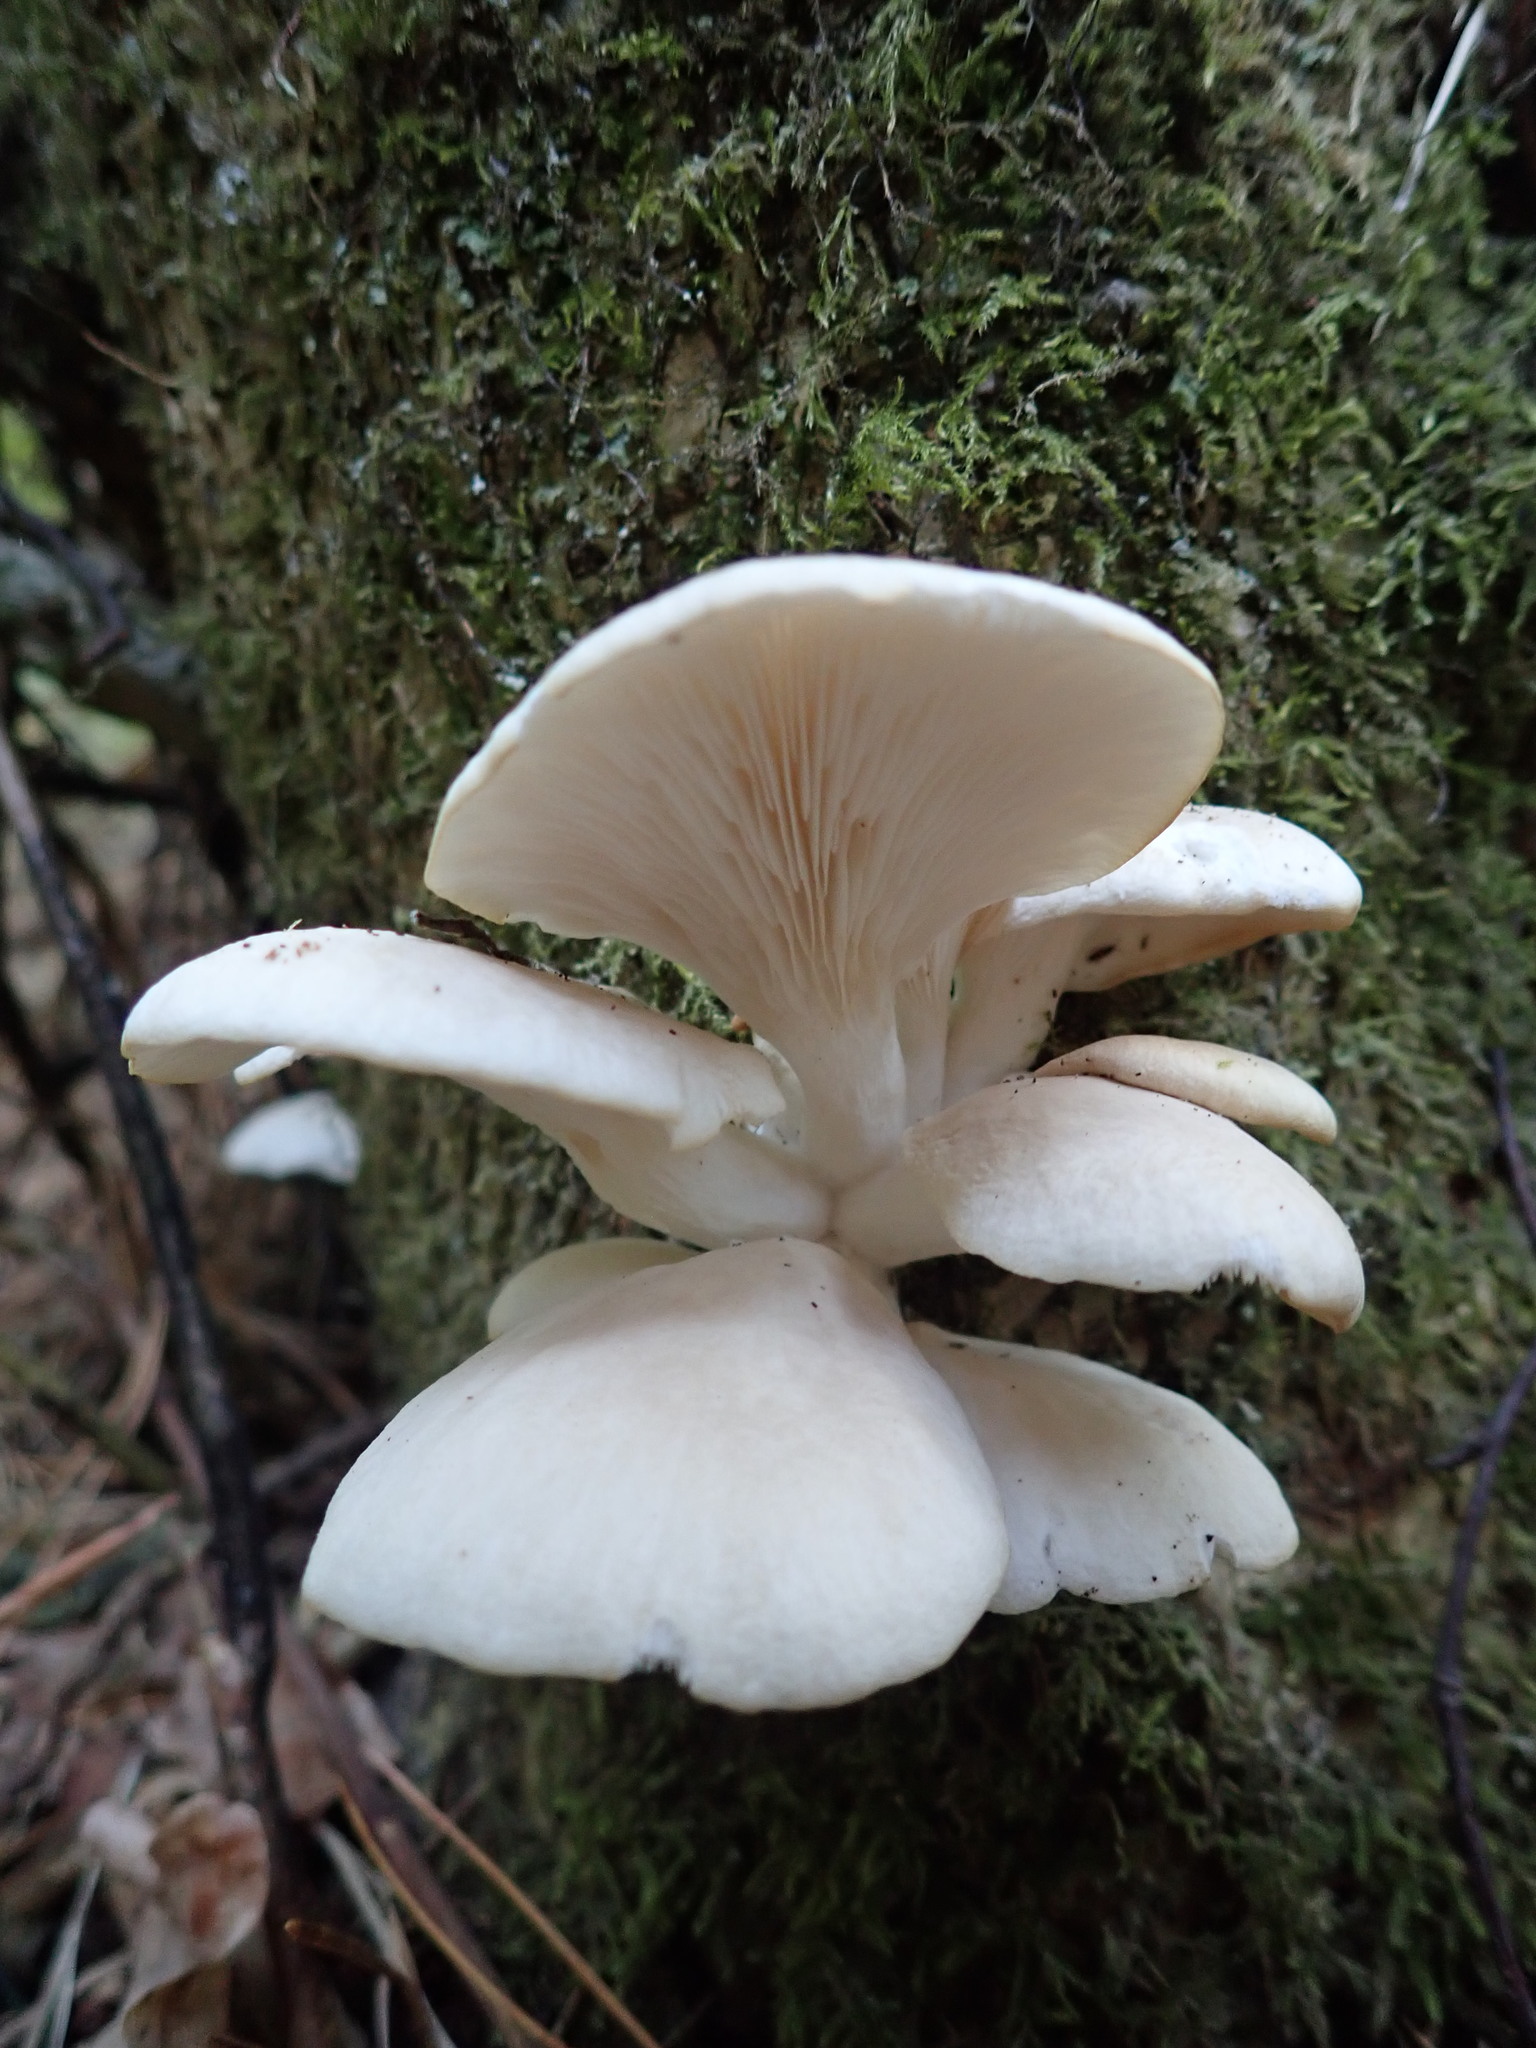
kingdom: Fungi
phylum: Basidiomycota
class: Agaricomycetes
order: Agaricales
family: Pleurotaceae
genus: Pleurotus
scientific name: Pleurotus ostreatus
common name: Oyster mushroom
